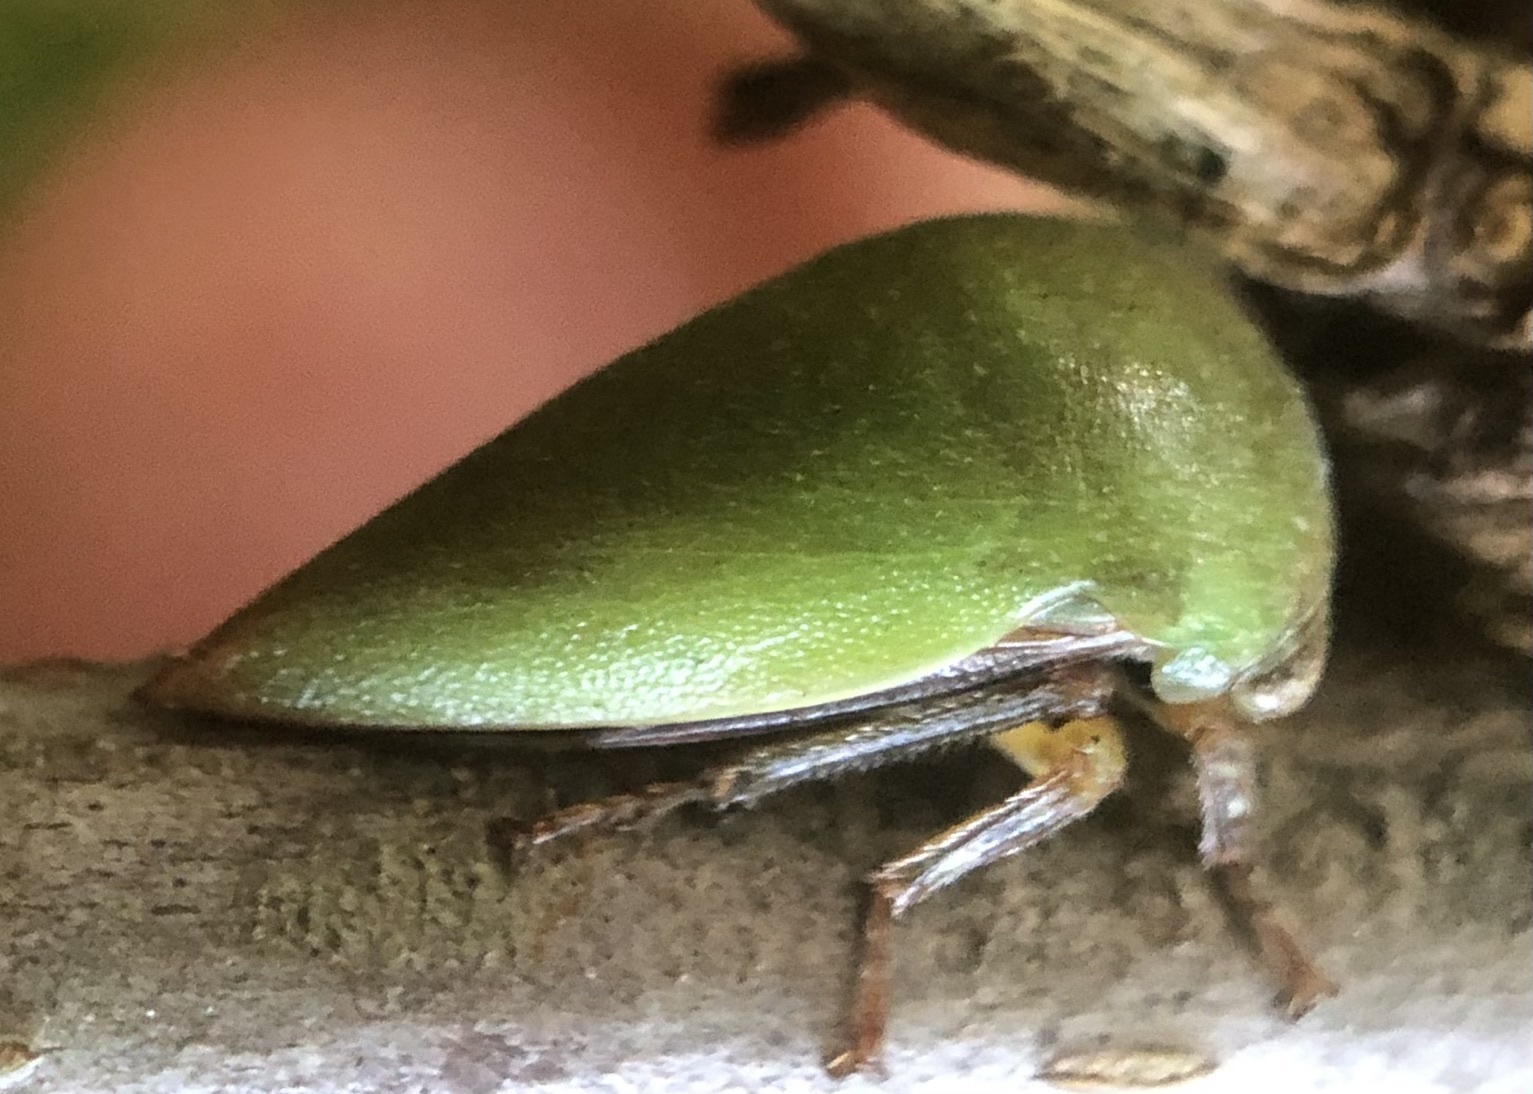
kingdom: Animalia
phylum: Arthropoda
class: Insecta
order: Hemiptera
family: Membracidae
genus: Hebetica
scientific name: Hebetica
